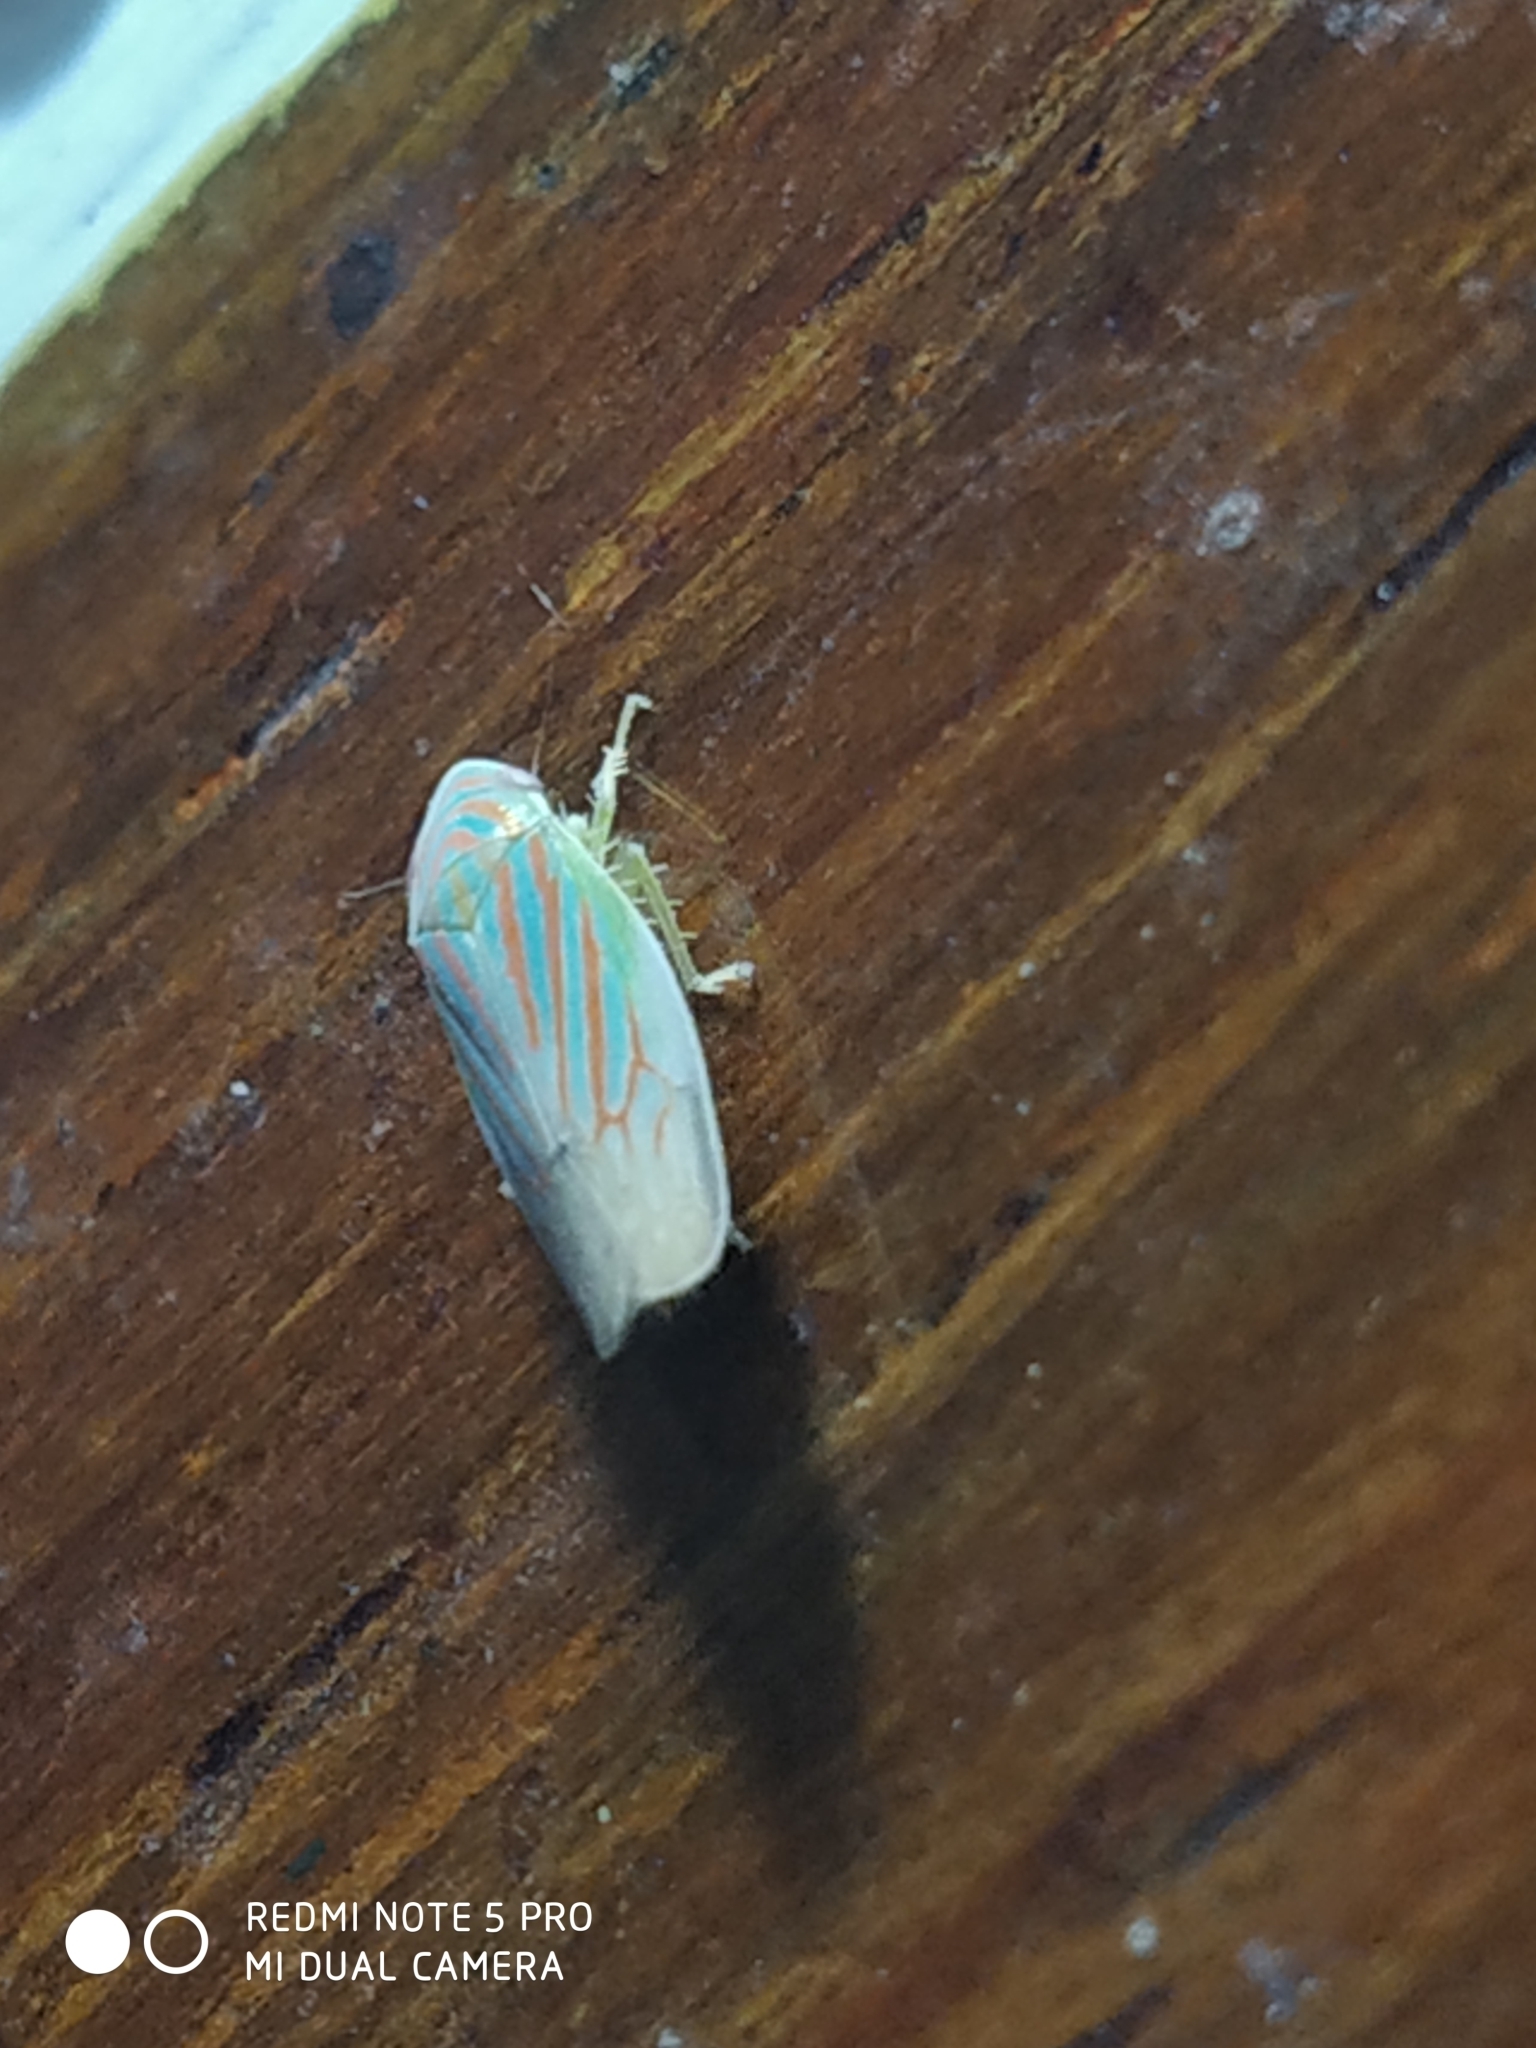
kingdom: Animalia
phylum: Arthropoda
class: Insecta
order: Hemiptera
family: Cicadellidae
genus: Linnavuoriella
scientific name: Linnavuoriella arcuata
